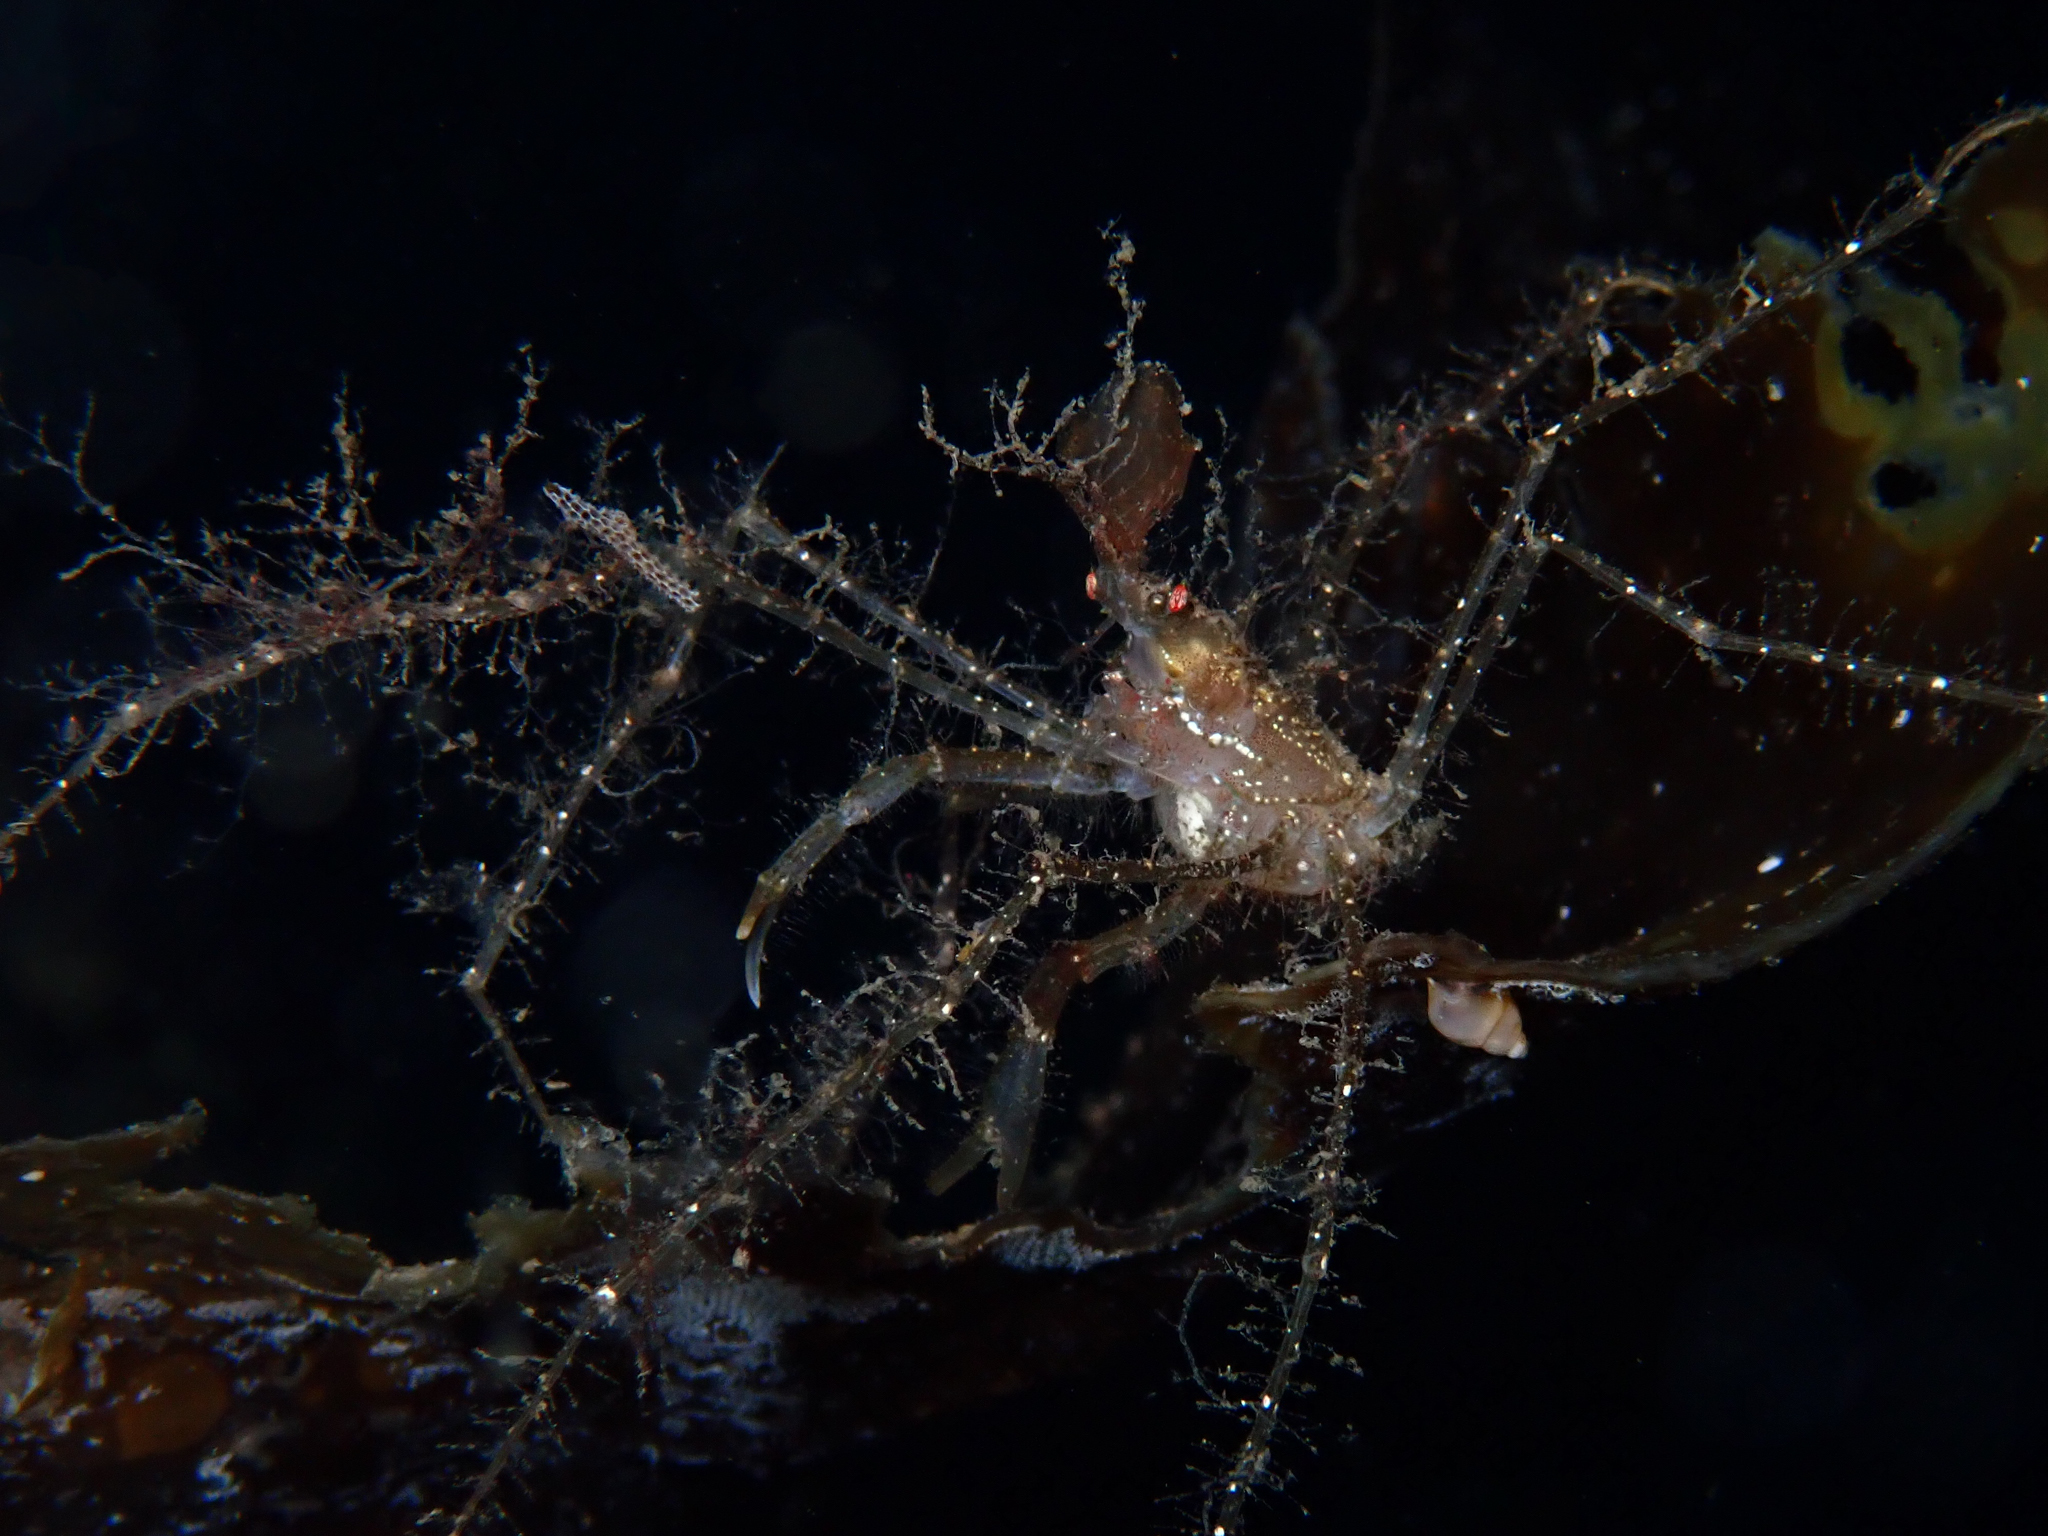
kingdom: Animalia
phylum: Arthropoda
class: Malacostraca
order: Decapoda
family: Inachidae
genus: Macropodia
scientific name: Macropodia rostrata
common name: Long-legged spider crab
